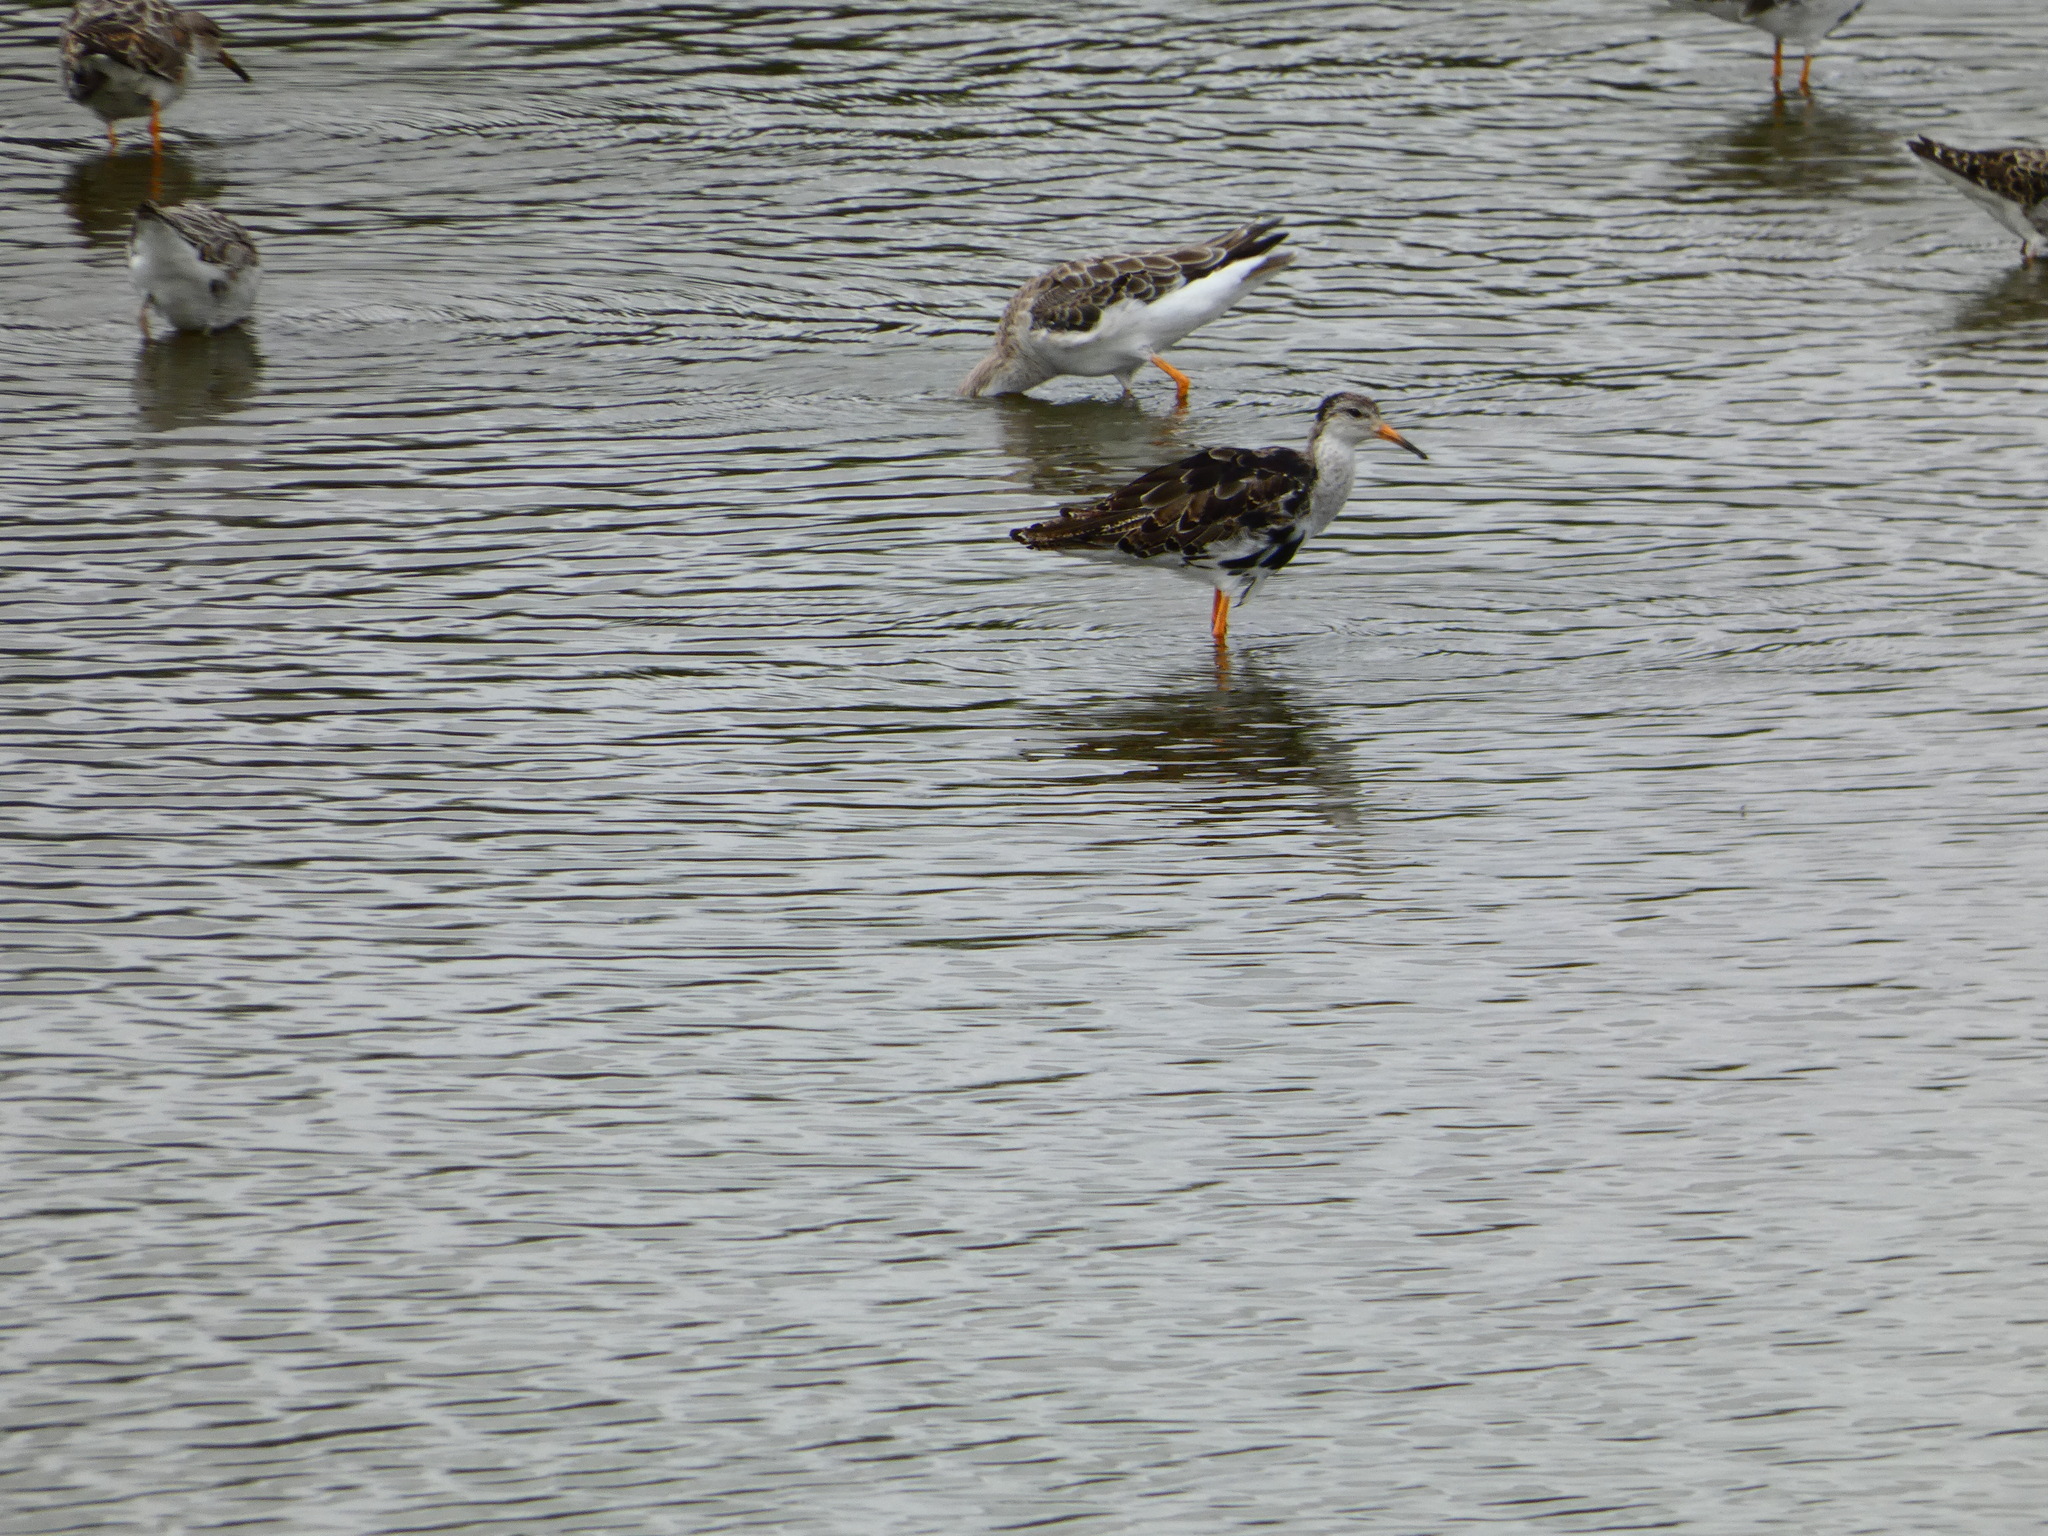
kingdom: Animalia
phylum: Chordata
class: Aves
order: Charadriiformes
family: Scolopacidae
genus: Calidris
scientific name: Calidris pugnax
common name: Ruff
